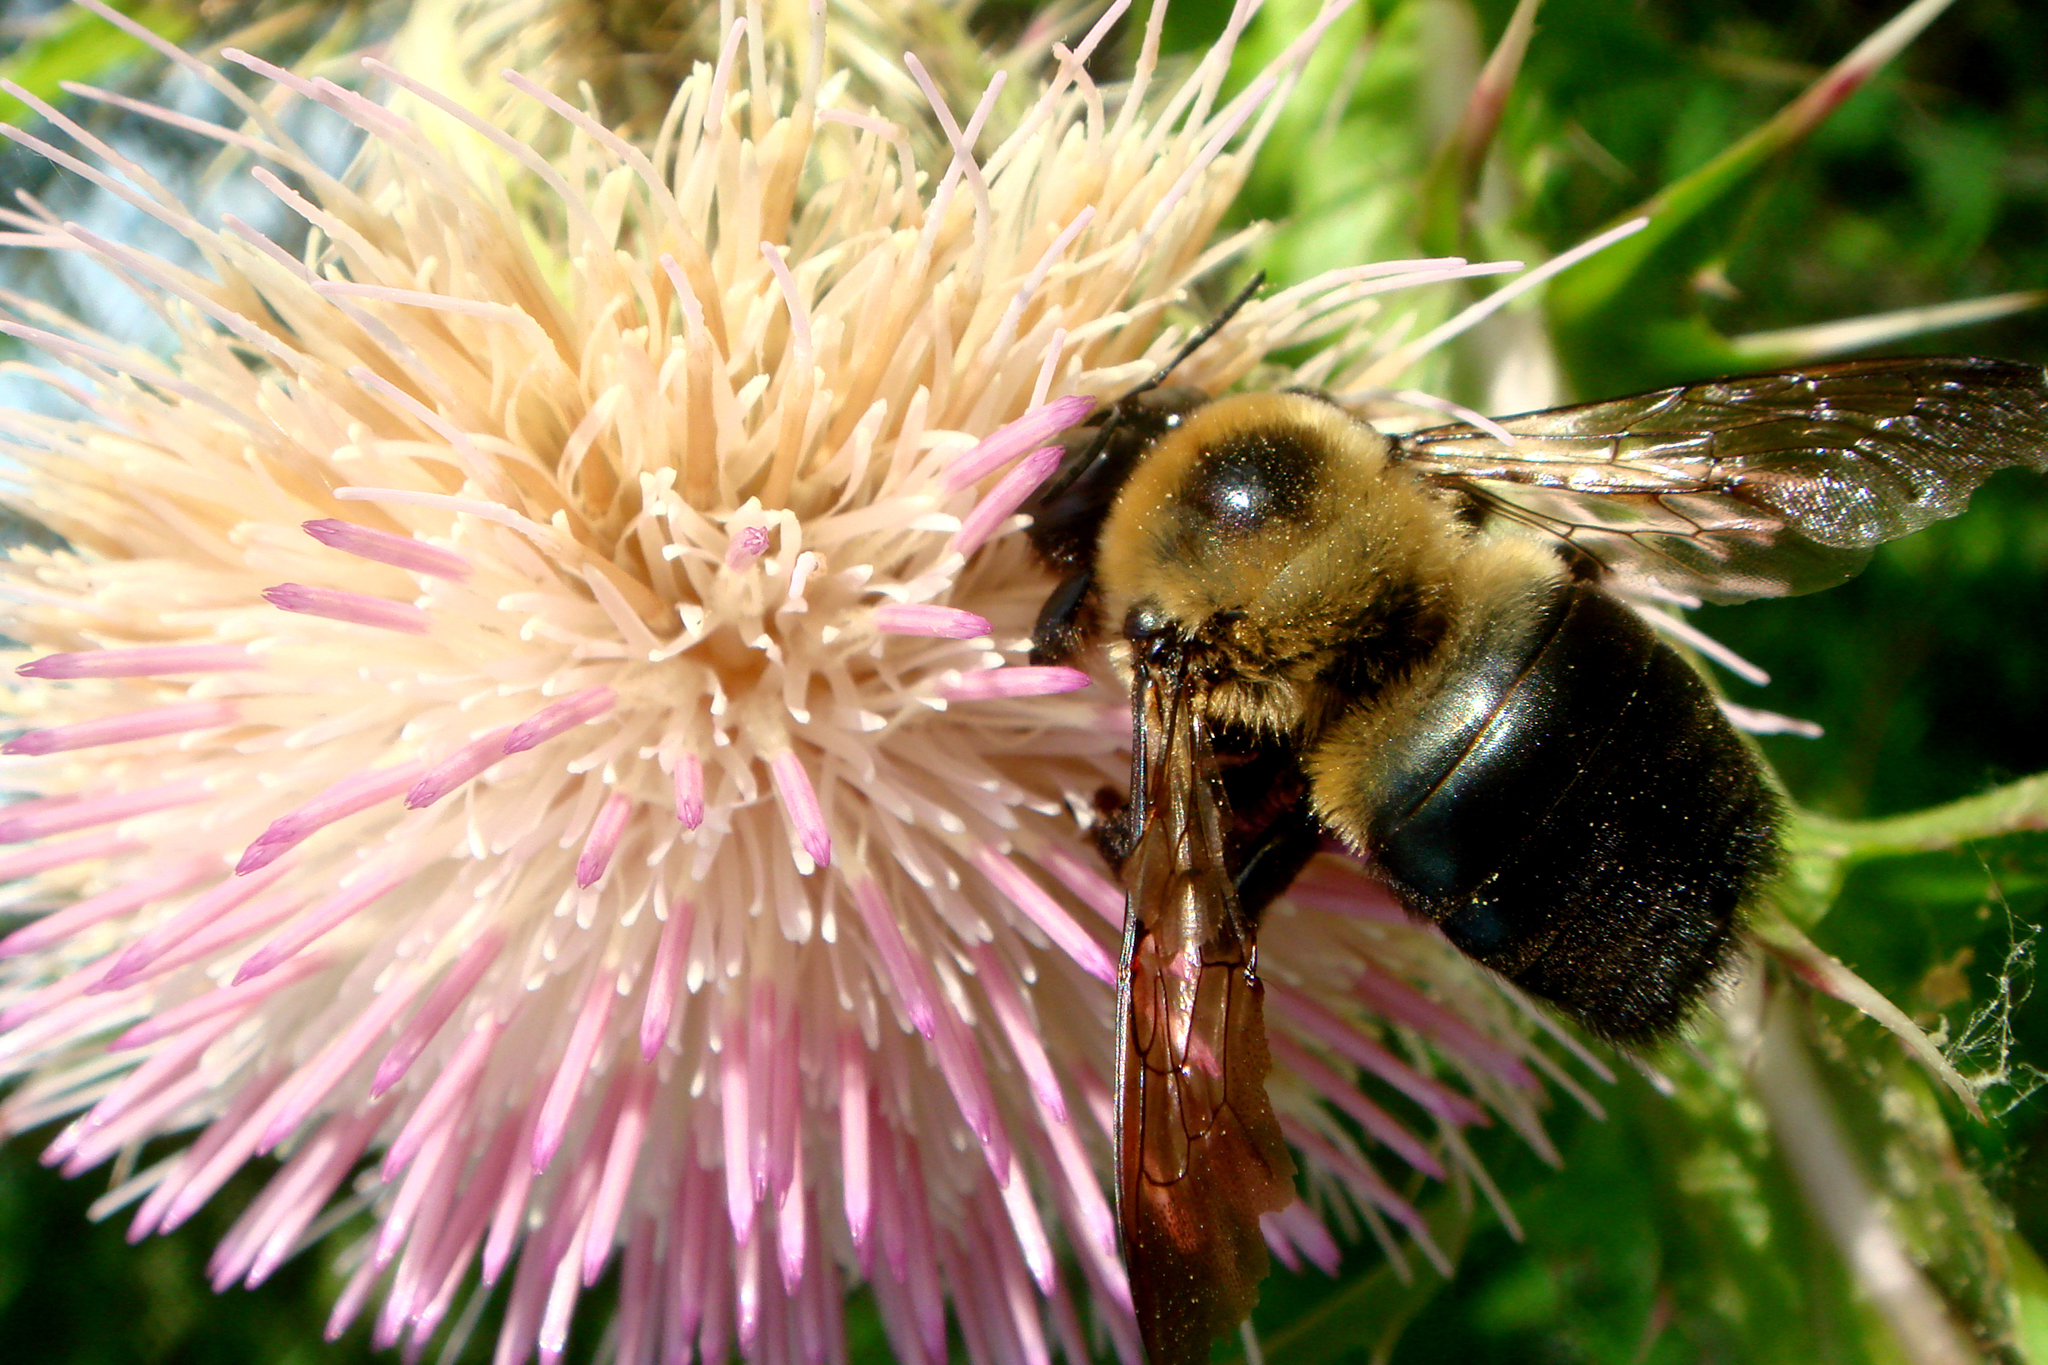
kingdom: Animalia
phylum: Arthropoda
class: Insecta
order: Hymenoptera
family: Apidae
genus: Xylocopa
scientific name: Xylocopa virginica
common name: Carpenter bee
